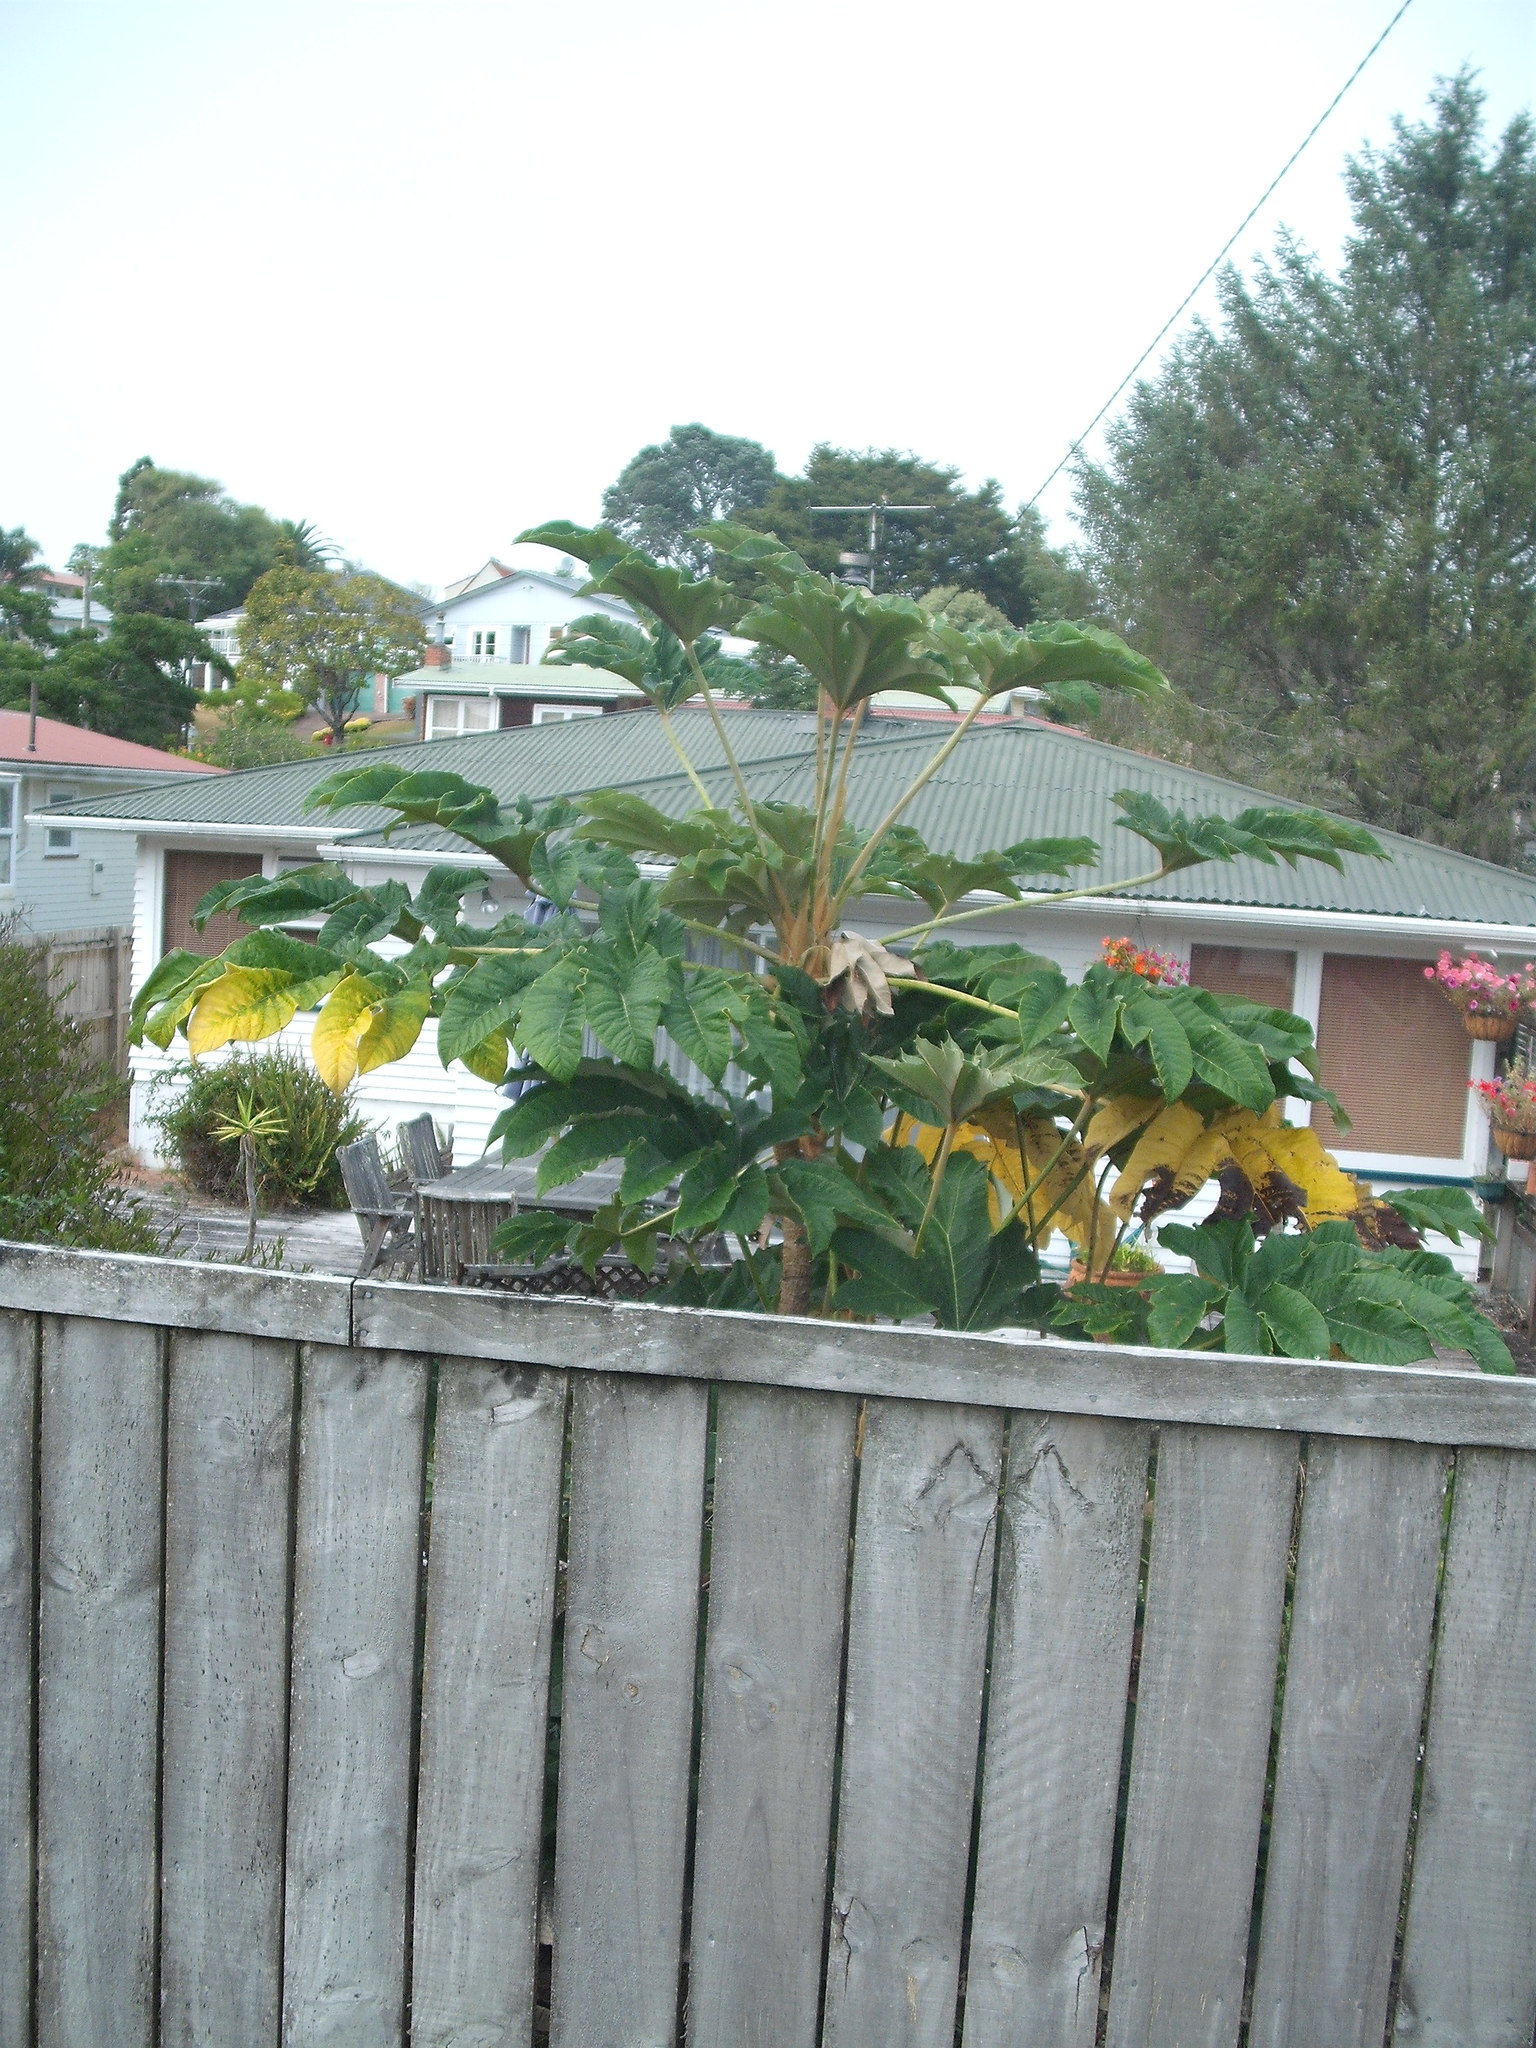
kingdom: Plantae
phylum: Tracheophyta
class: Magnoliopsida
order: Apiales
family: Araliaceae
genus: Tetrapanax
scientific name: Tetrapanax papyrifer
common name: Rice-paper plant
